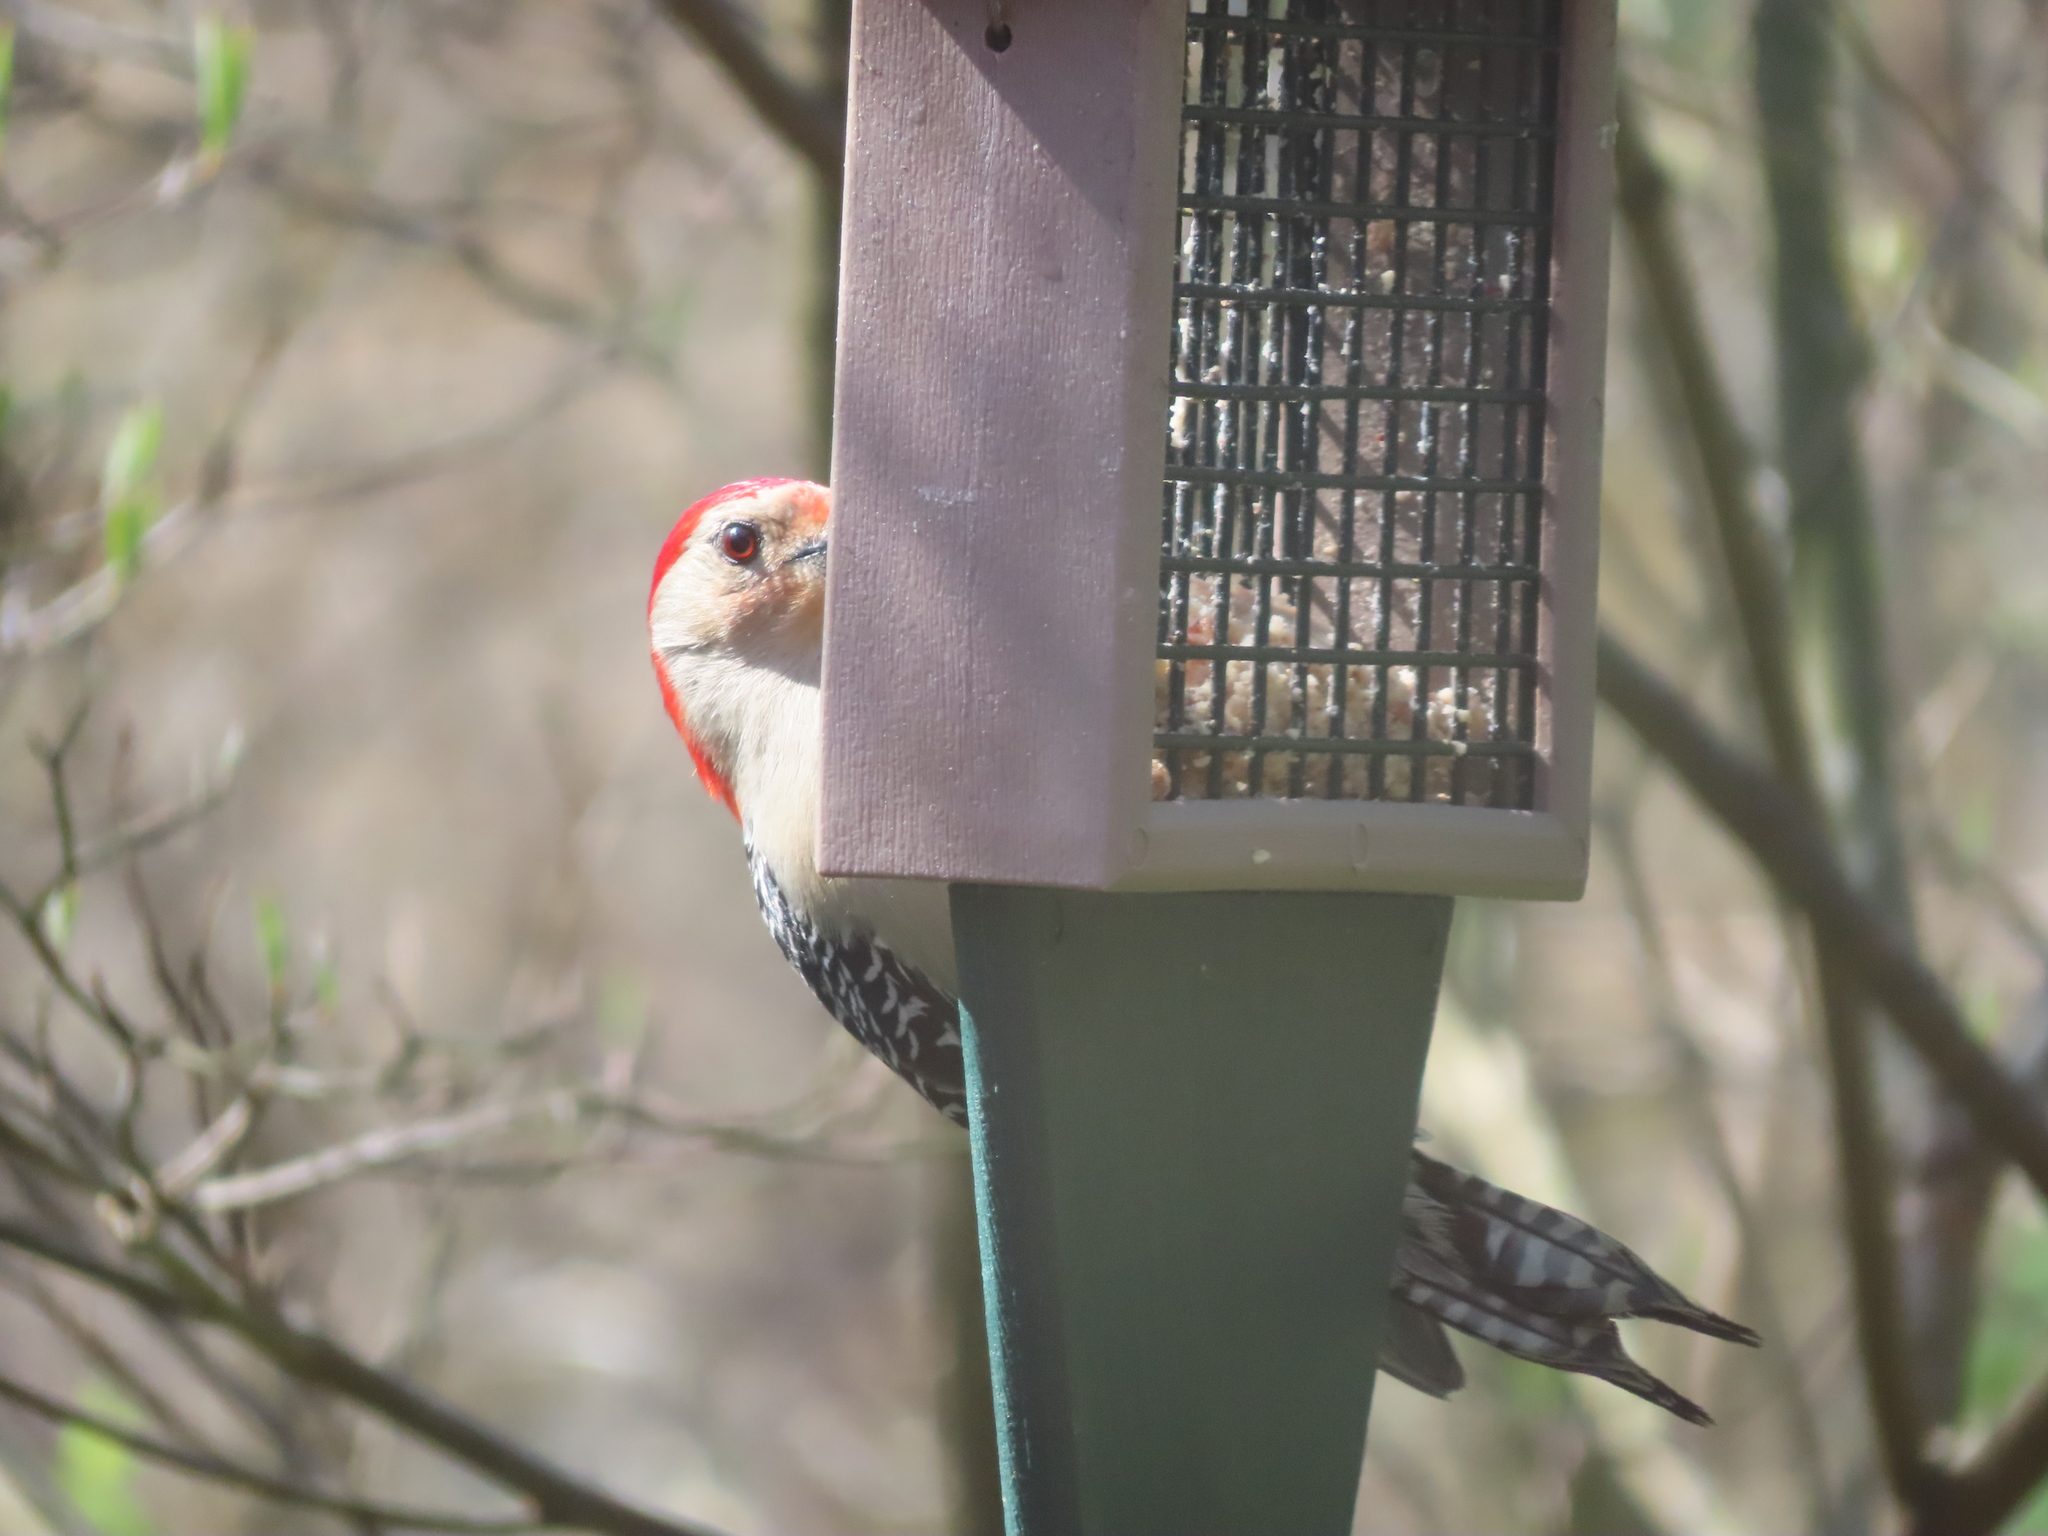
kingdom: Animalia
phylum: Chordata
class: Aves
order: Piciformes
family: Picidae
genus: Melanerpes
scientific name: Melanerpes carolinus
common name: Red-bellied woodpecker
